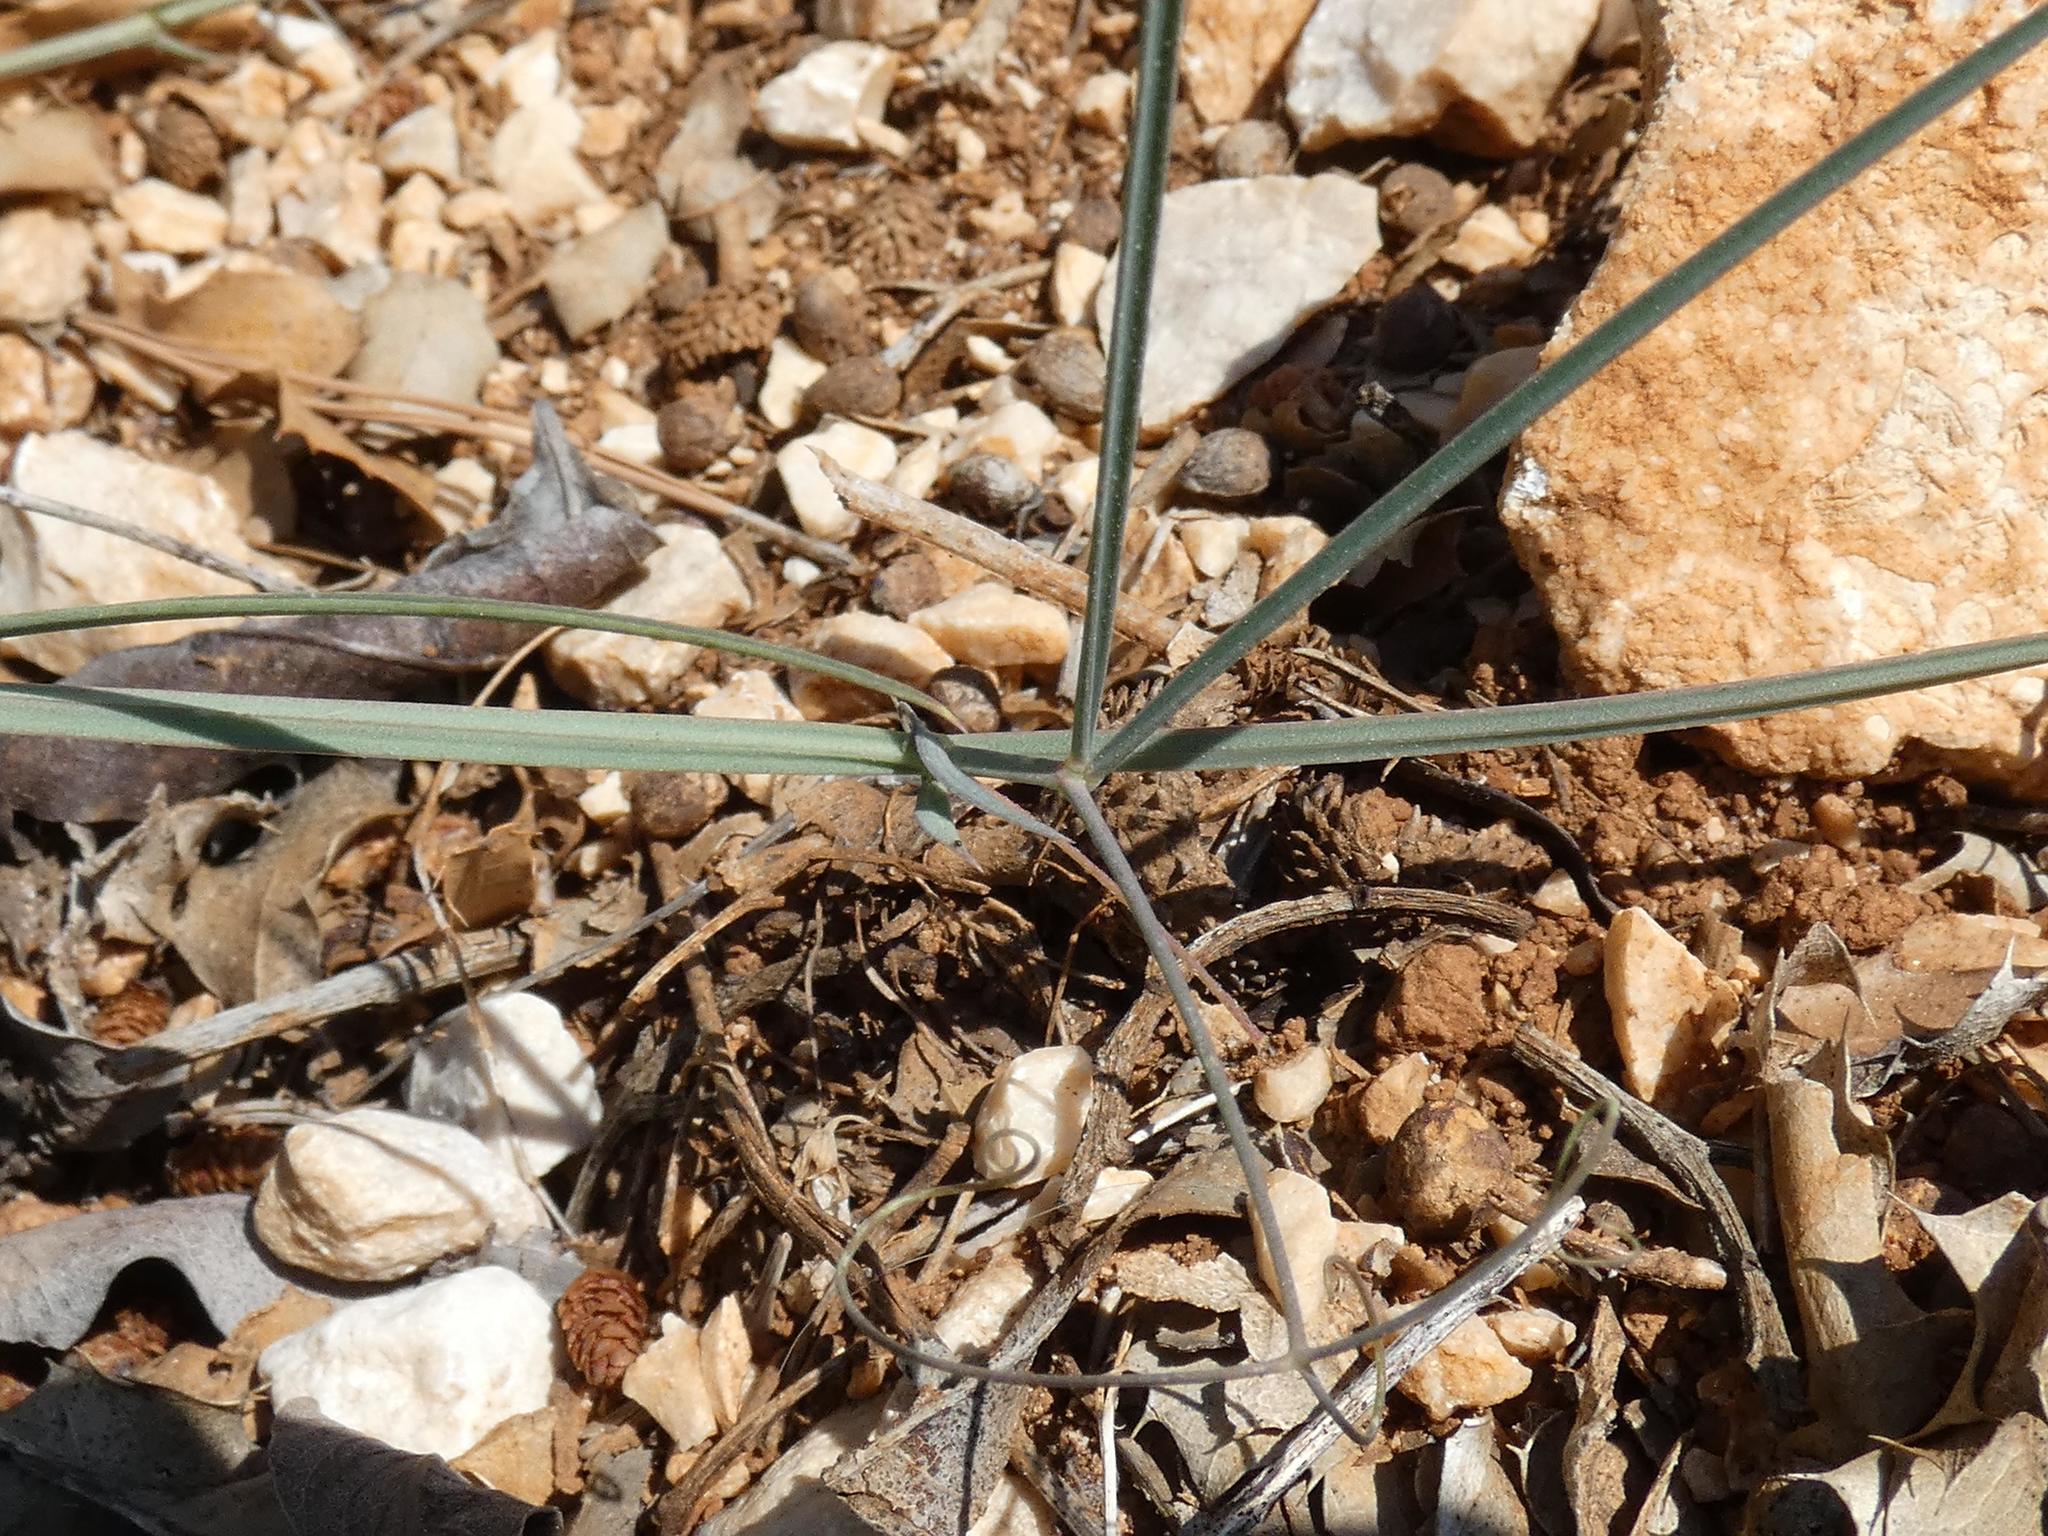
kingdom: Plantae
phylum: Tracheophyta
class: Magnoliopsida
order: Fabales
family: Fabaceae
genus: Lathyrus
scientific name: Lathyrus cicera
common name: Red vetchling
